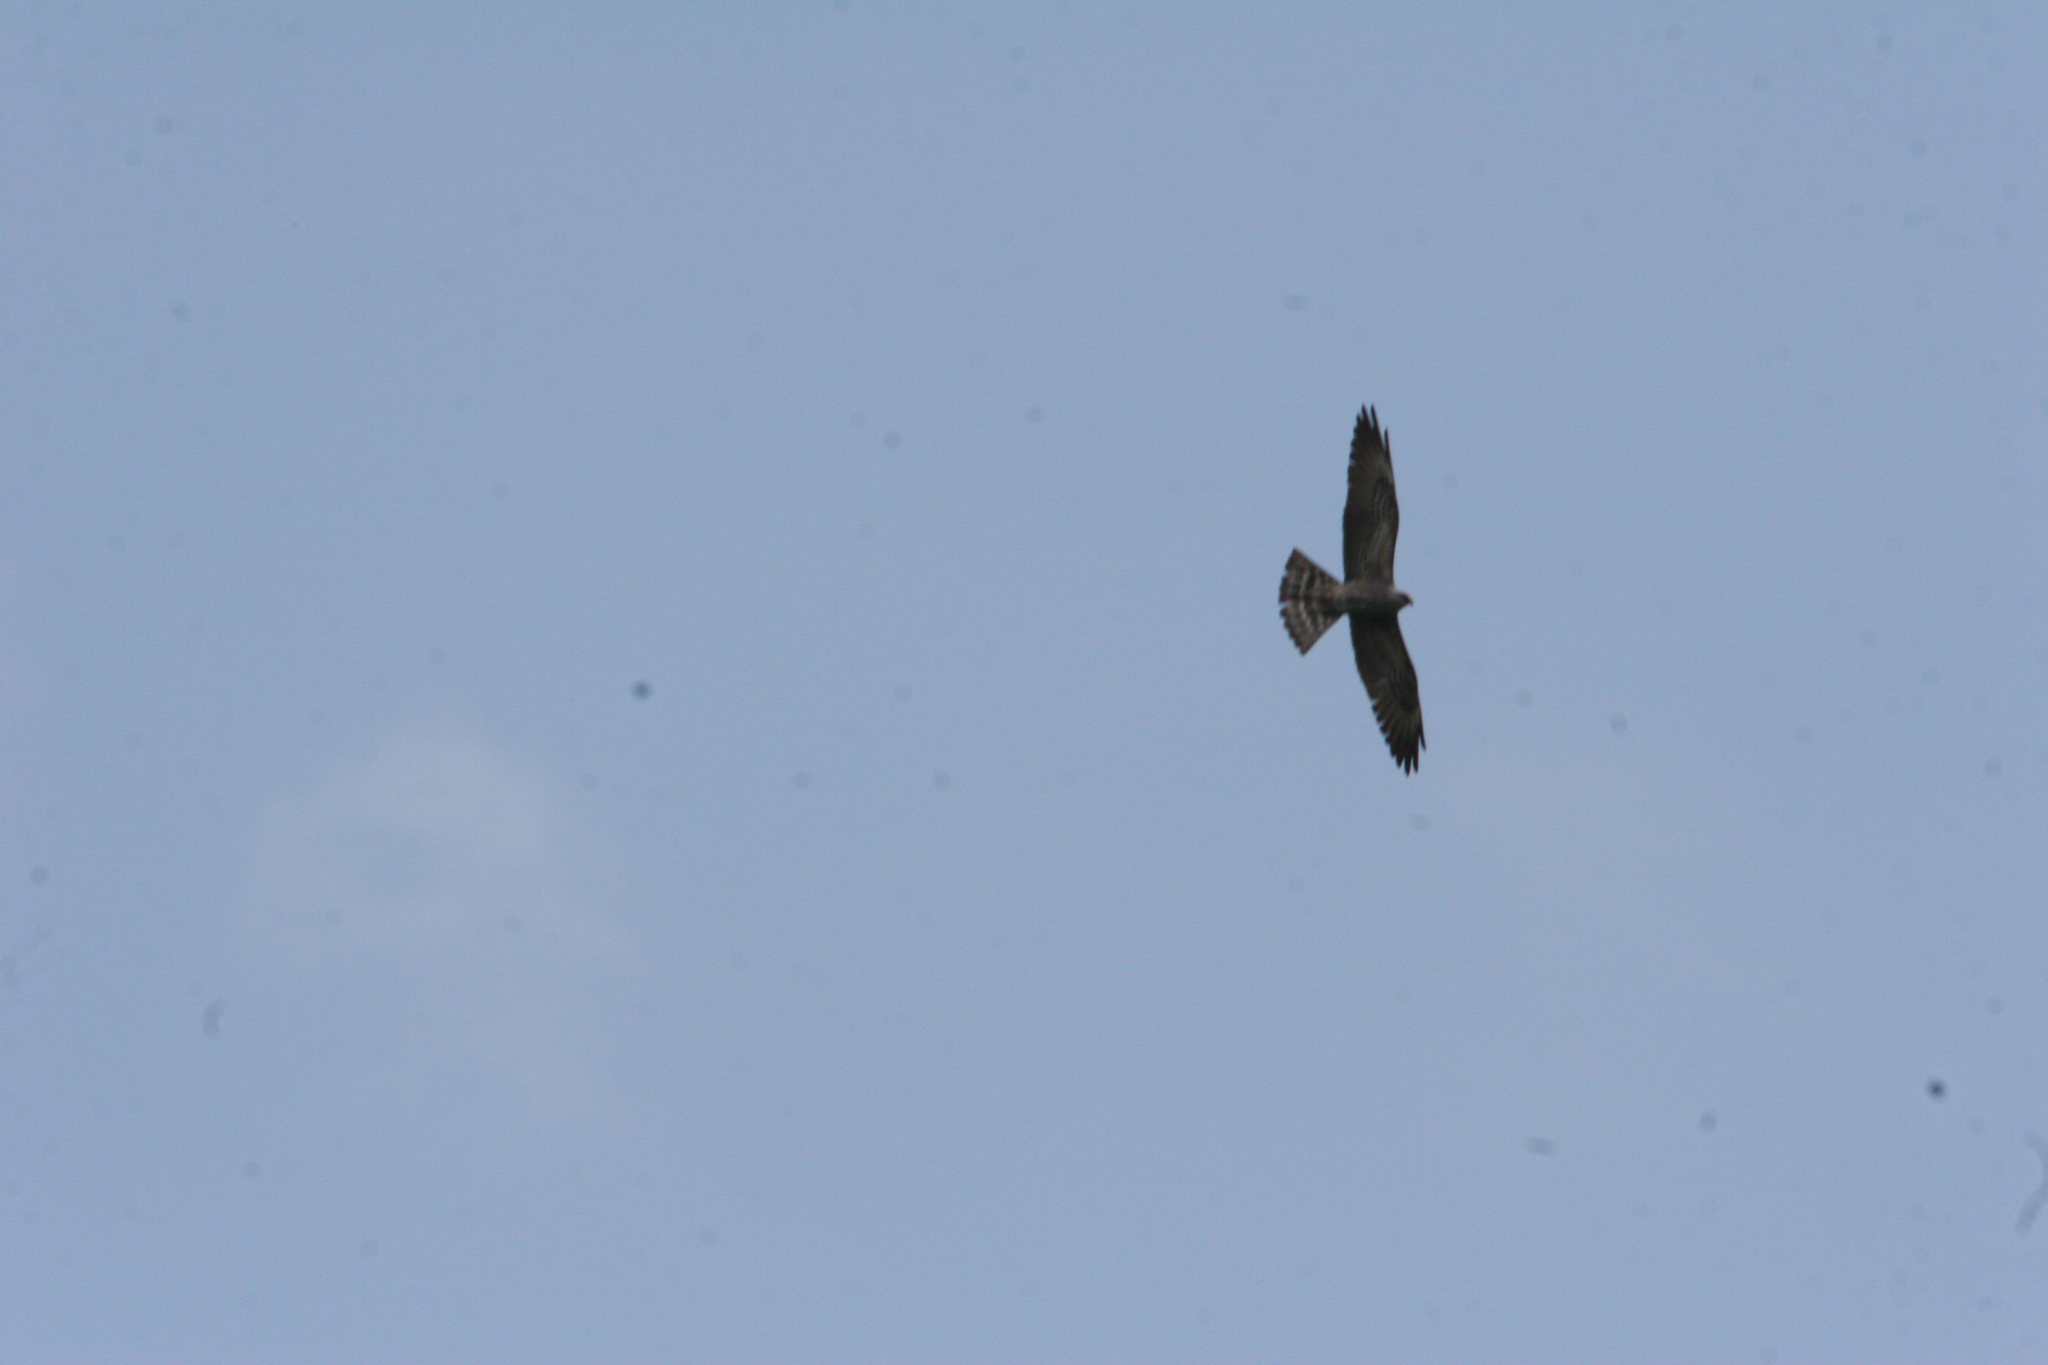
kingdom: Animalia
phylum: Chordata
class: Aves
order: Accipitriformes
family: Accipitridae
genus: Ictinia
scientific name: Ictinia mississippiensis
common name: Mississippi kite
